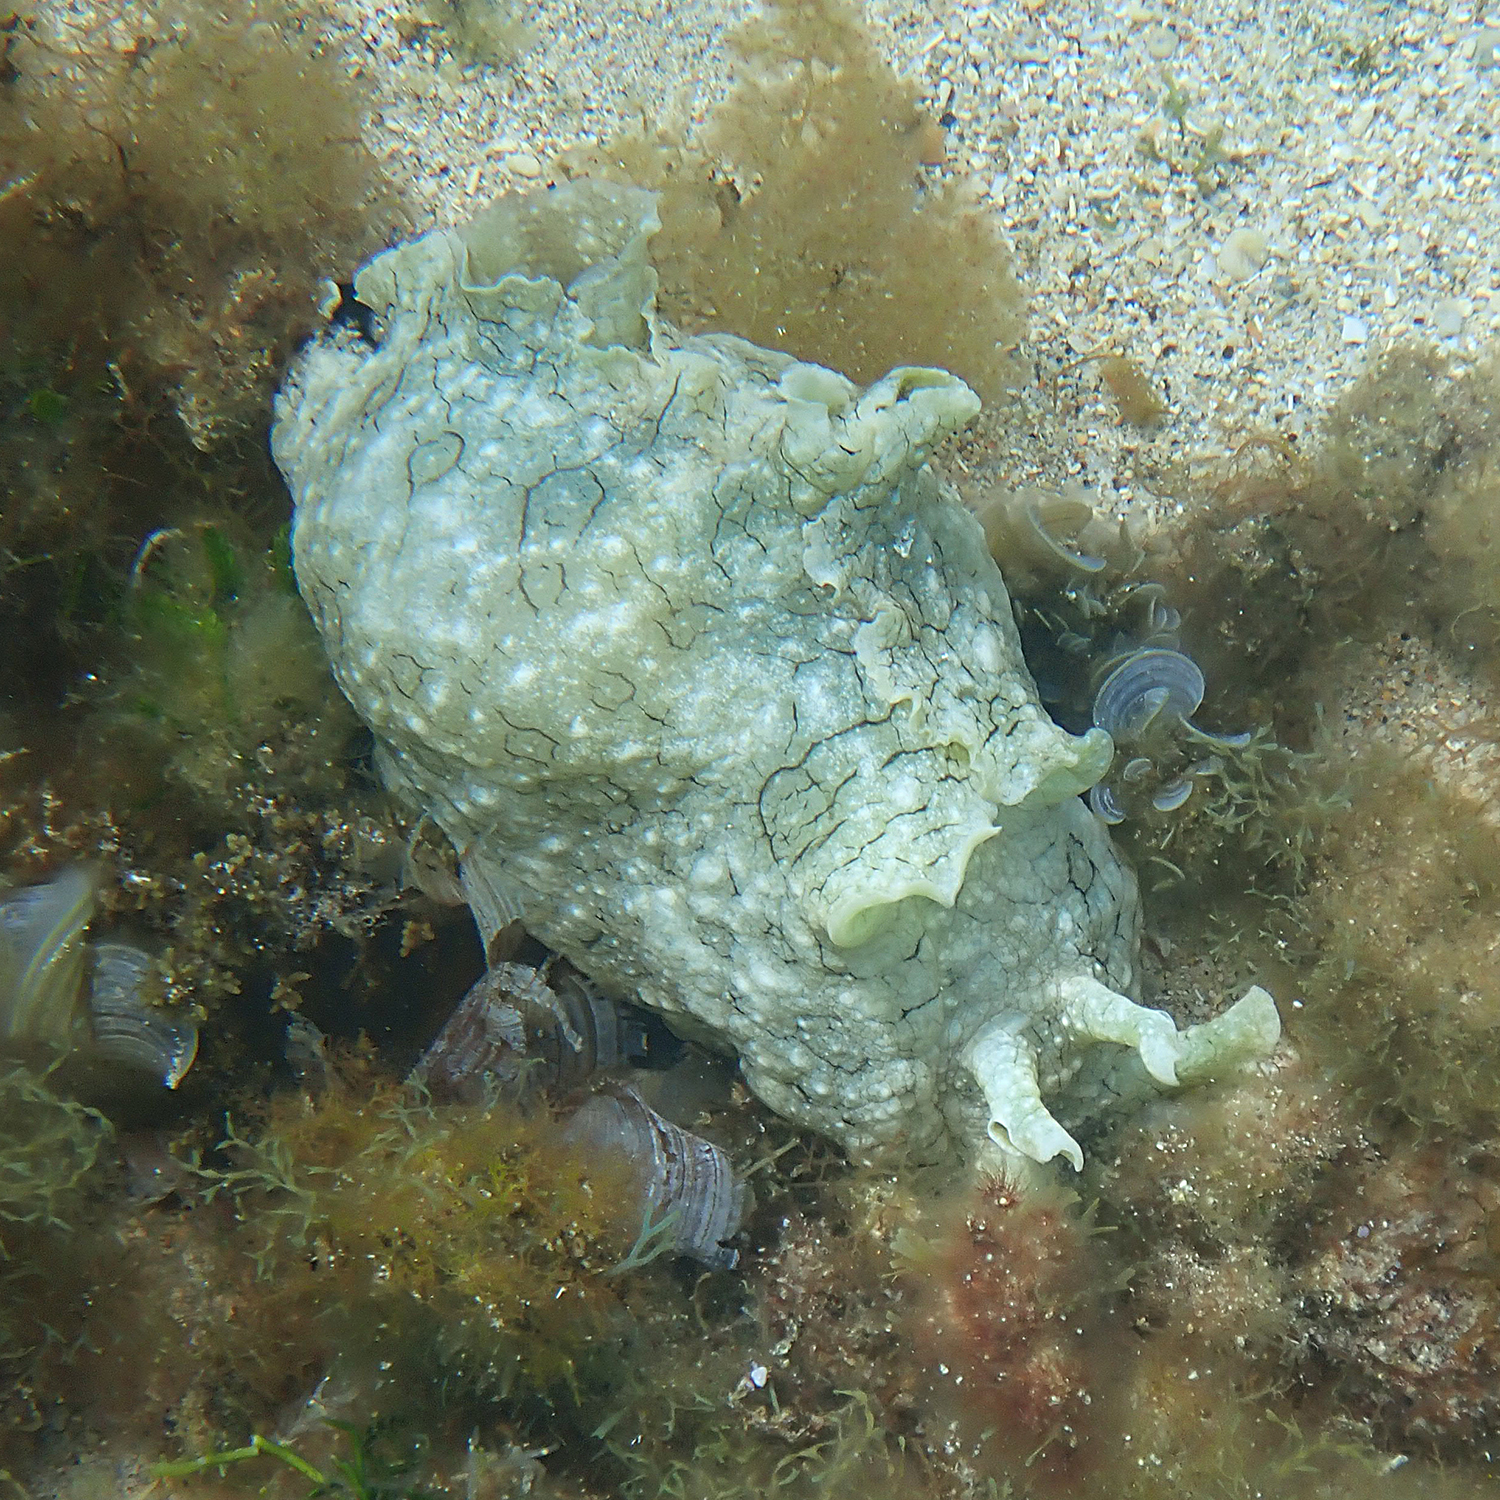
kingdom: Animalia
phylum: Mollusca
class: Gastropoda
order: Aplysiida
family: Aplysiidae
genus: Aplysia
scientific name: Aplysia argus
